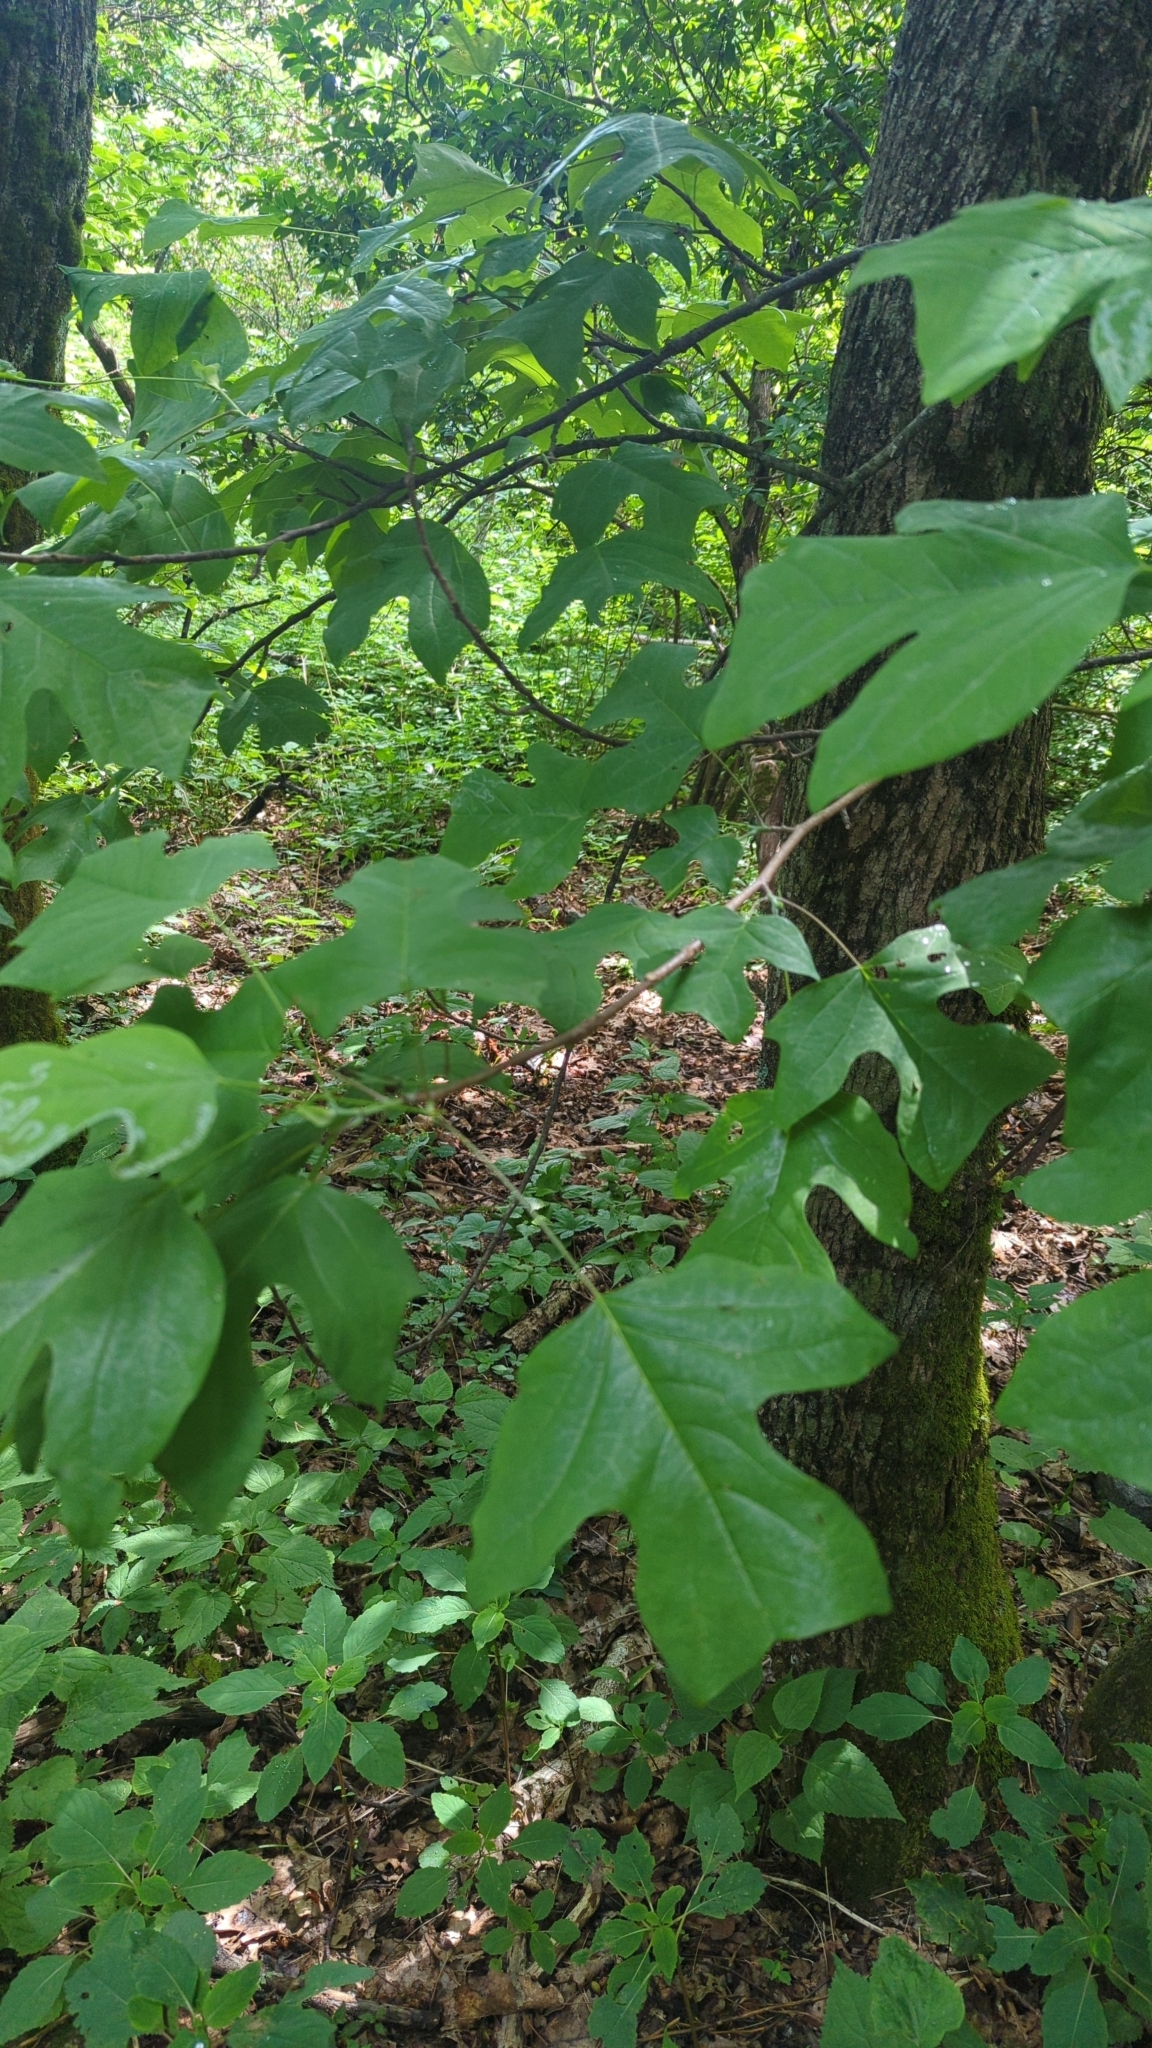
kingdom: Plantae
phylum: Tracheophyta
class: Magnoliopsida
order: Magnoliales
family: Magnoliaceae
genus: Liriodendron
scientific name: Liriodendron tulipifera
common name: Tulip tree
